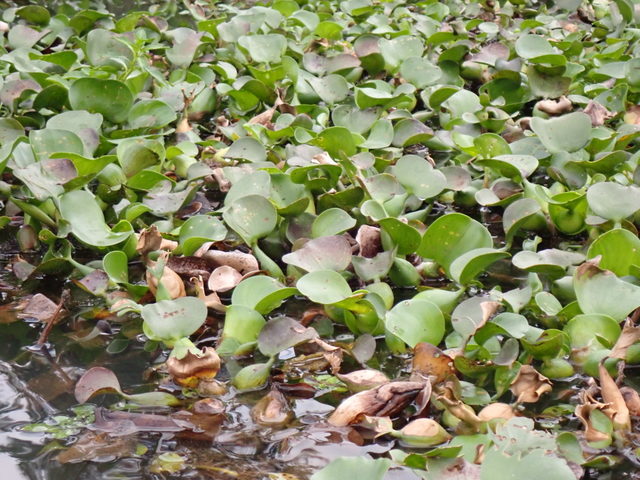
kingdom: Plantae
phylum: Tracheophyta
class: Liliopsida
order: Commelinales
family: Pontederiaceae
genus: Pontederia
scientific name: Pontederia crassipes
